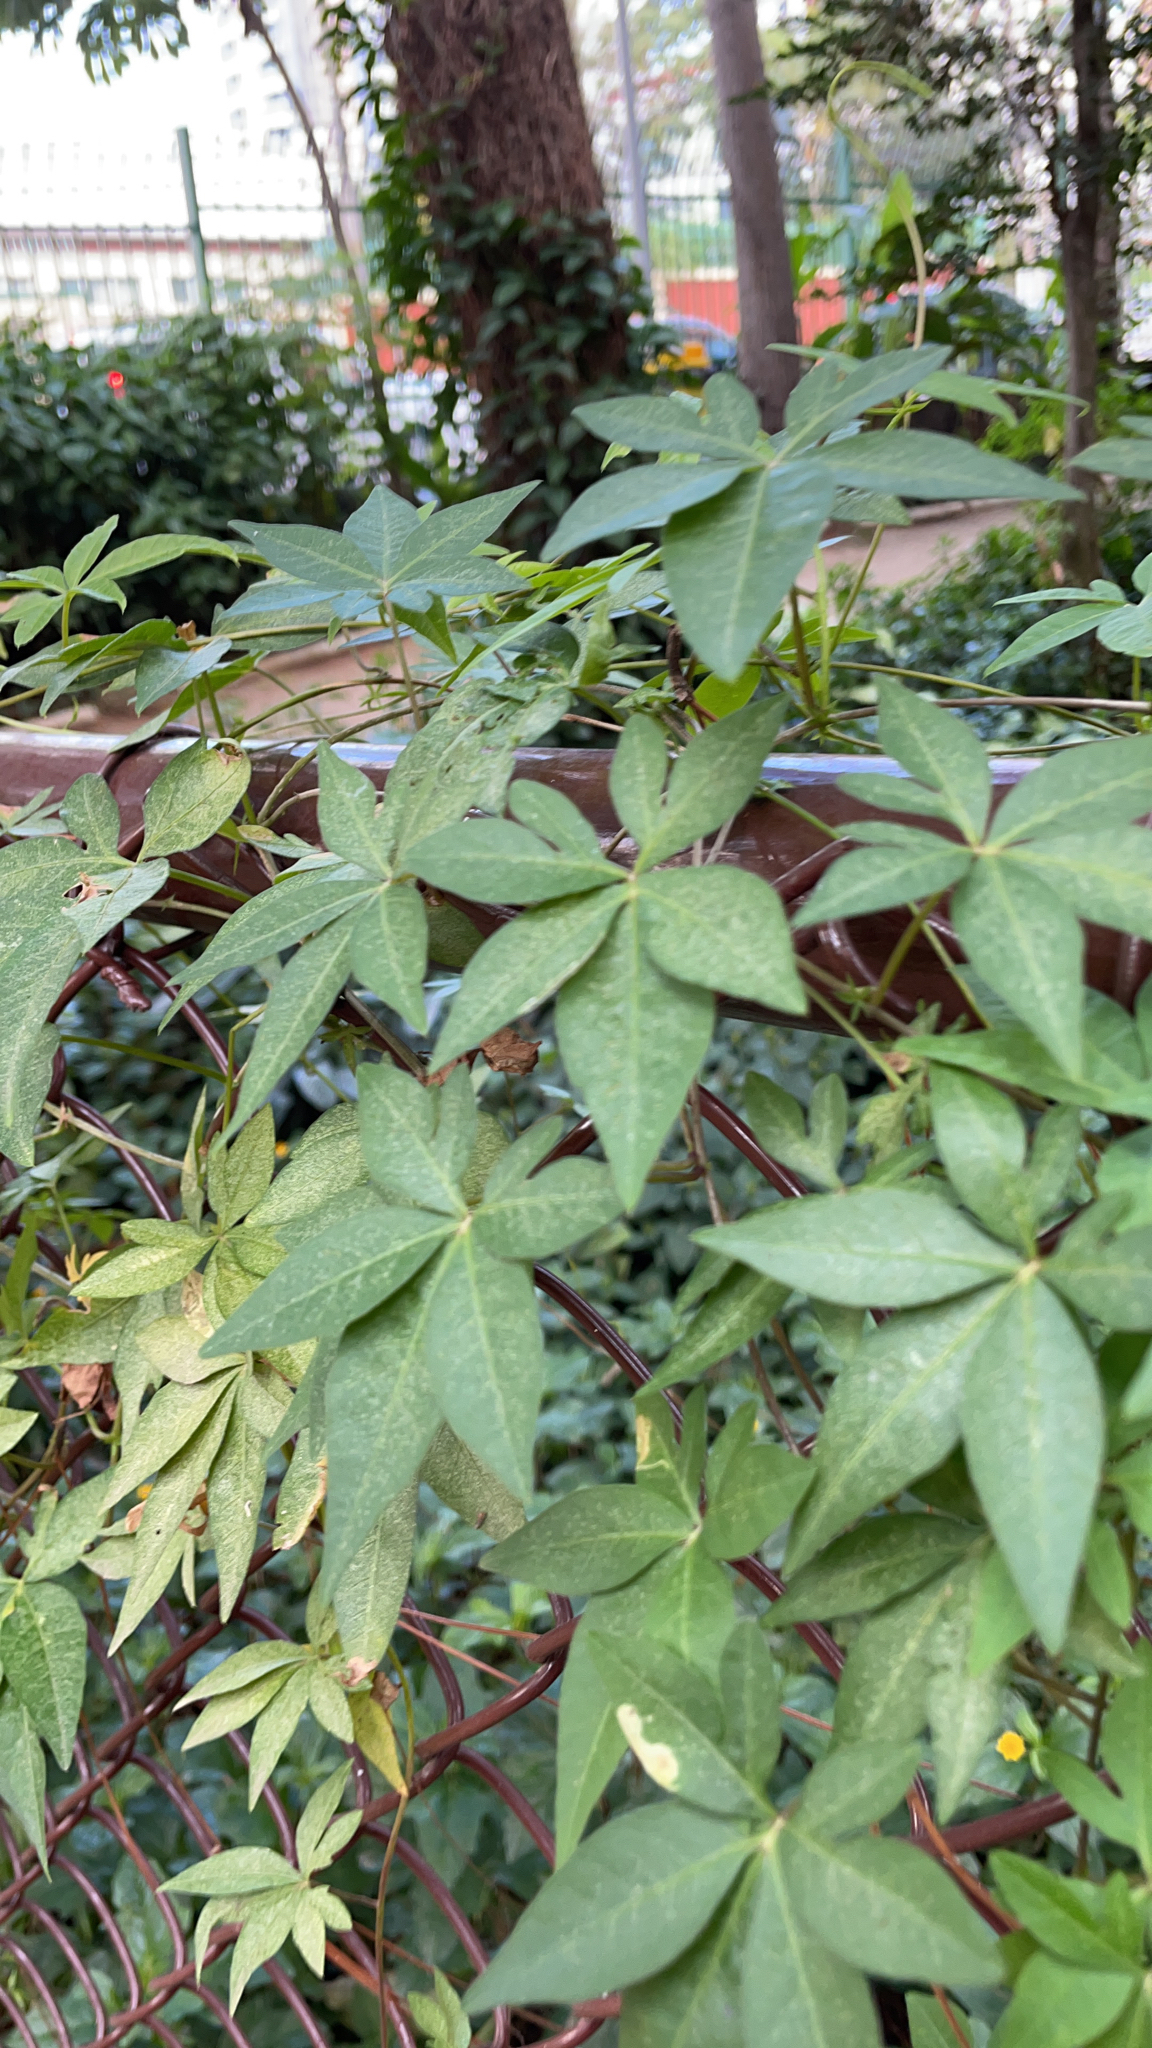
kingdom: Plantae
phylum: Tracheophyta
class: Magnoliopsida
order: Solanales
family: Convolvulaceae
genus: Ipomoea
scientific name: Ipomoea cairica
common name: Mile a minute vine
